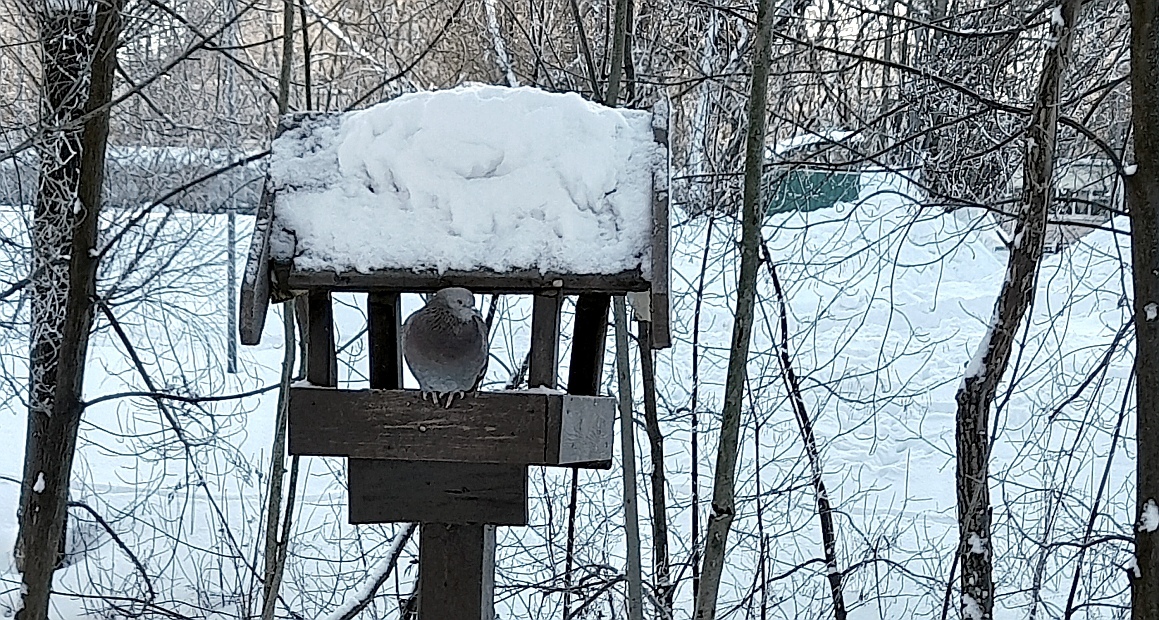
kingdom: Animalia
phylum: Chordata
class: Aves
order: Columbiformes
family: Columbidae
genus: Columba
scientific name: Columba livia
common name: Rock pigeon
